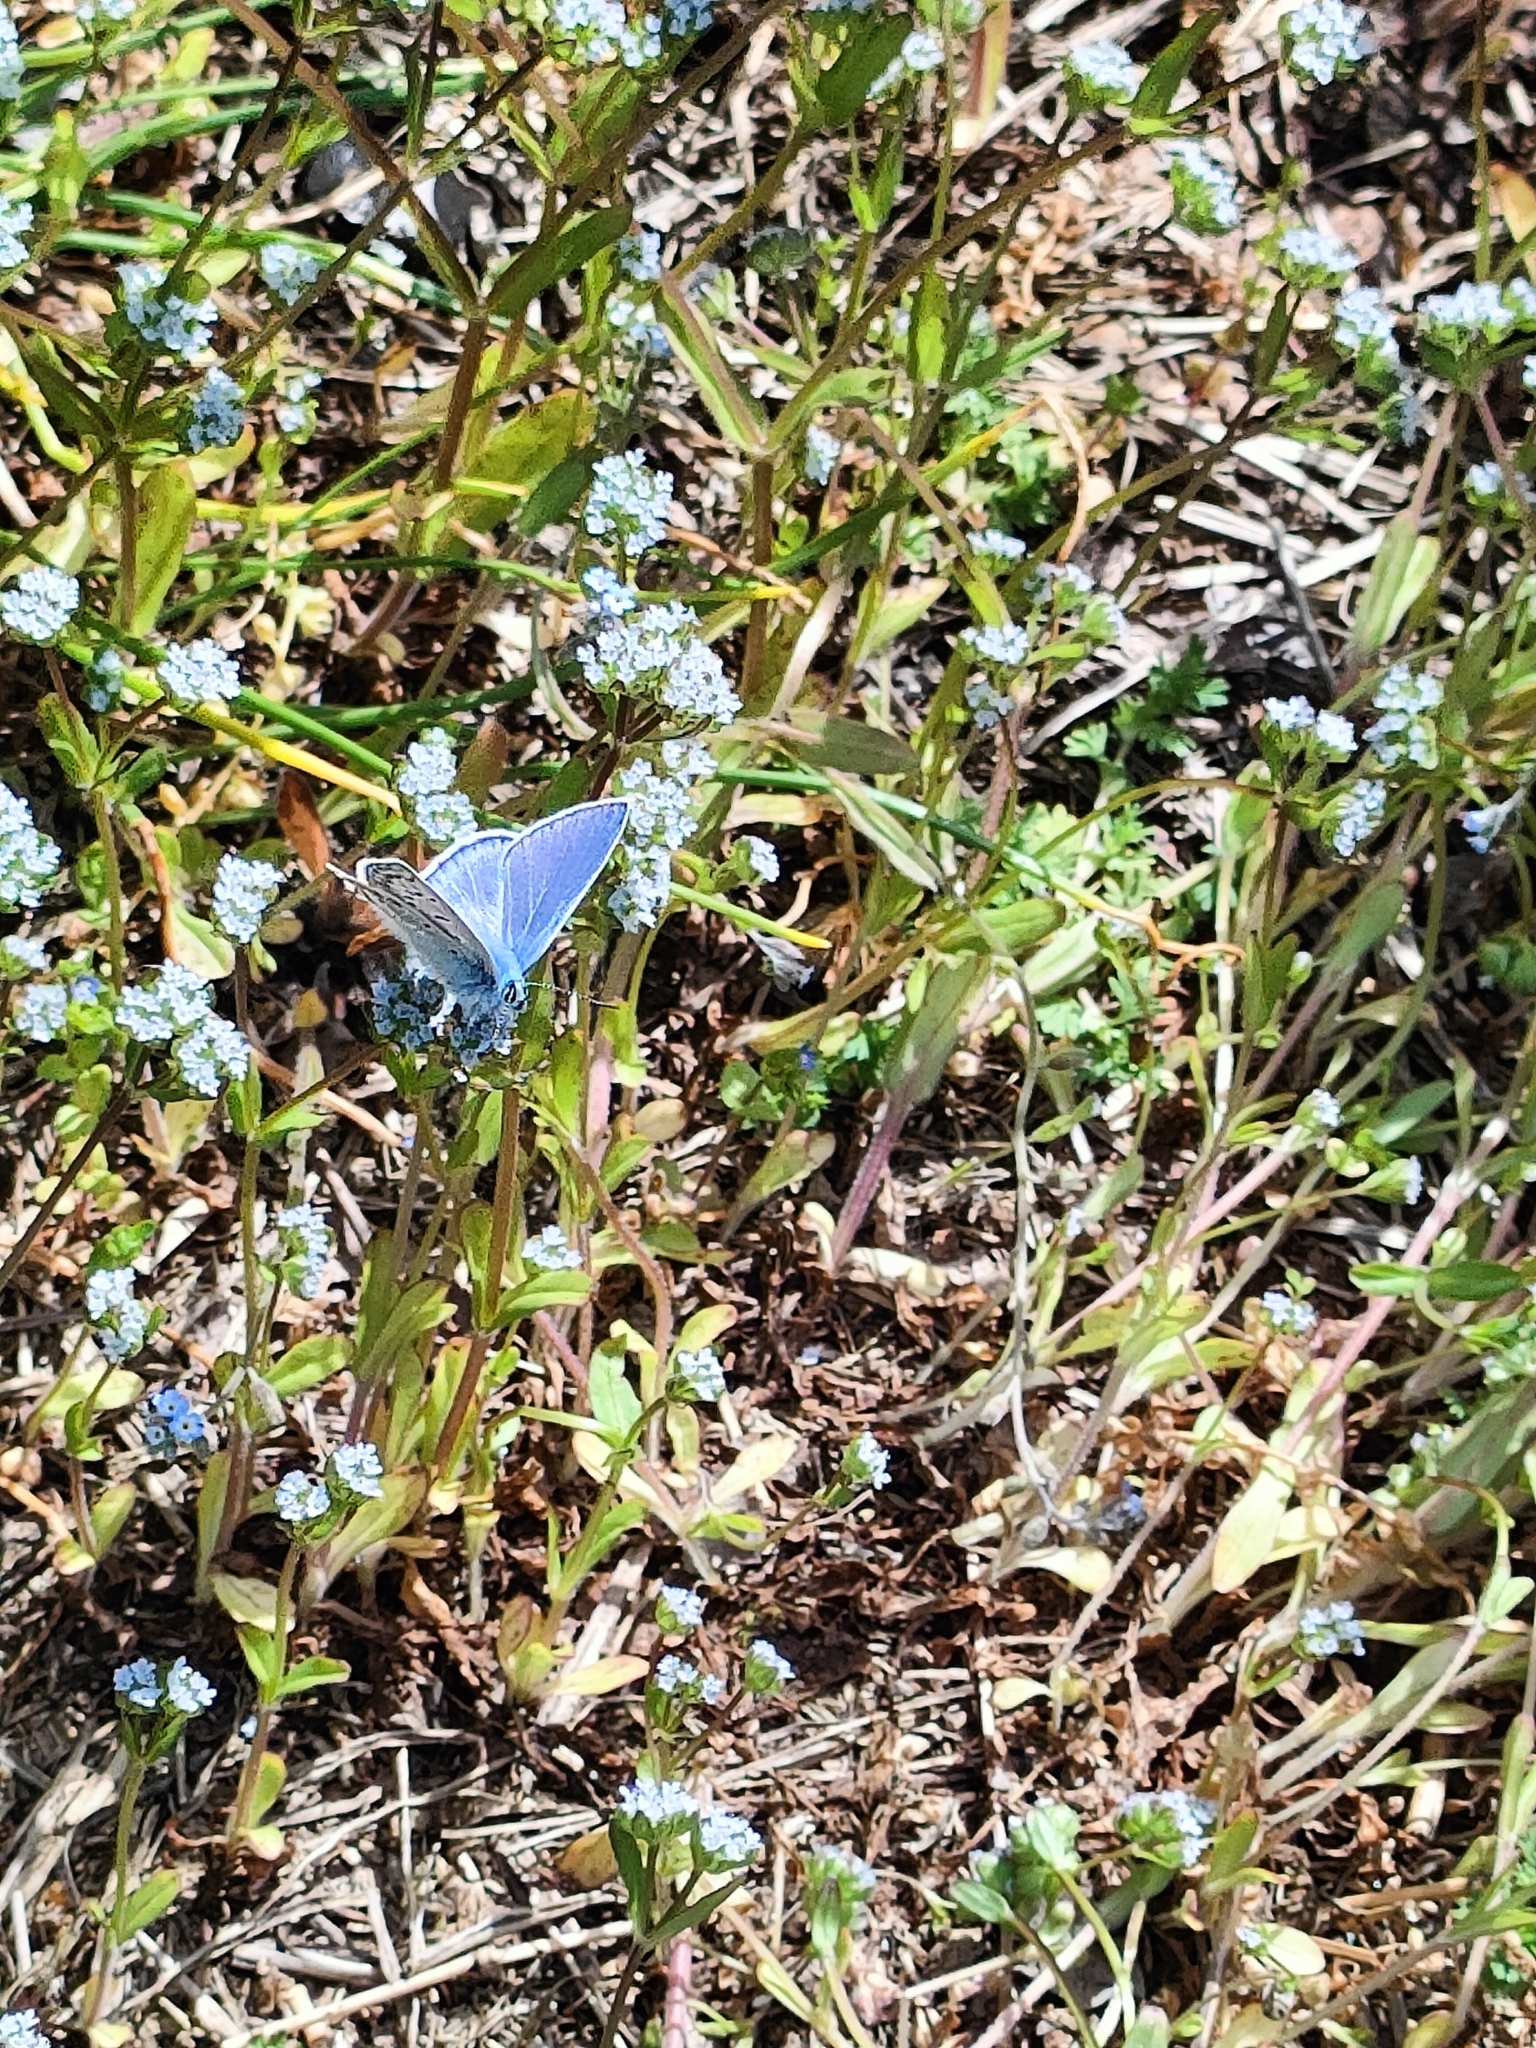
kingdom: Animalia
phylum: Arthropoda
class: Insecta
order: Lepidoptera
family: Lycaenidae
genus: Polyommatus
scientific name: Polyommatus icarus
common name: Common blue
